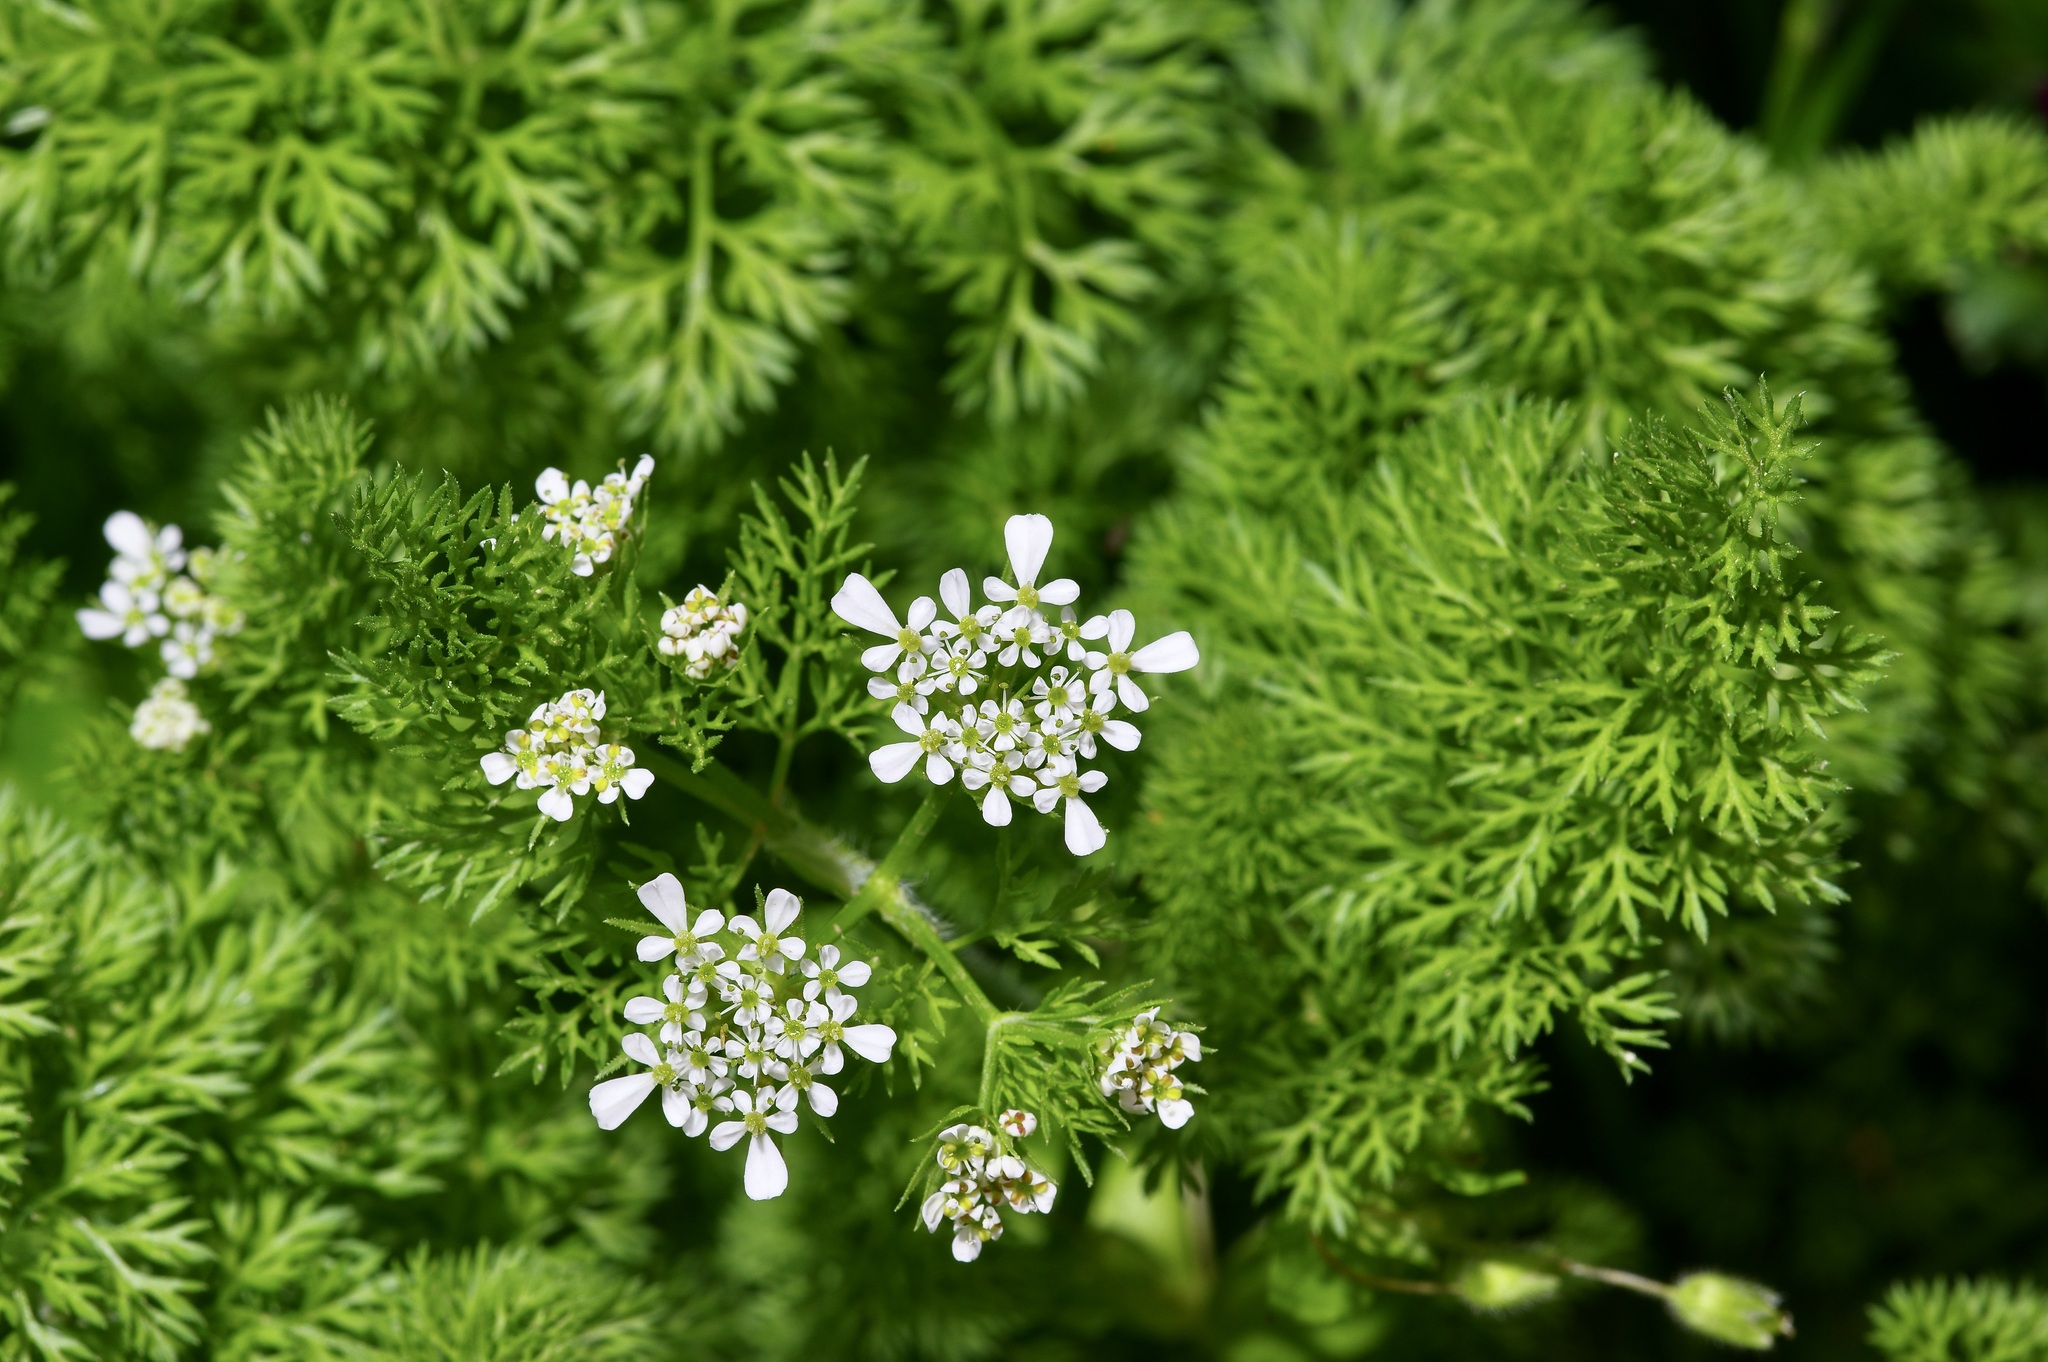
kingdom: Plantae
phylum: Tracheophyta
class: Magnoliopsida
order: Apiales
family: Apiaceae
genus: Scandix
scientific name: Scandix pecten-veneris
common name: Shepherd's-needle
